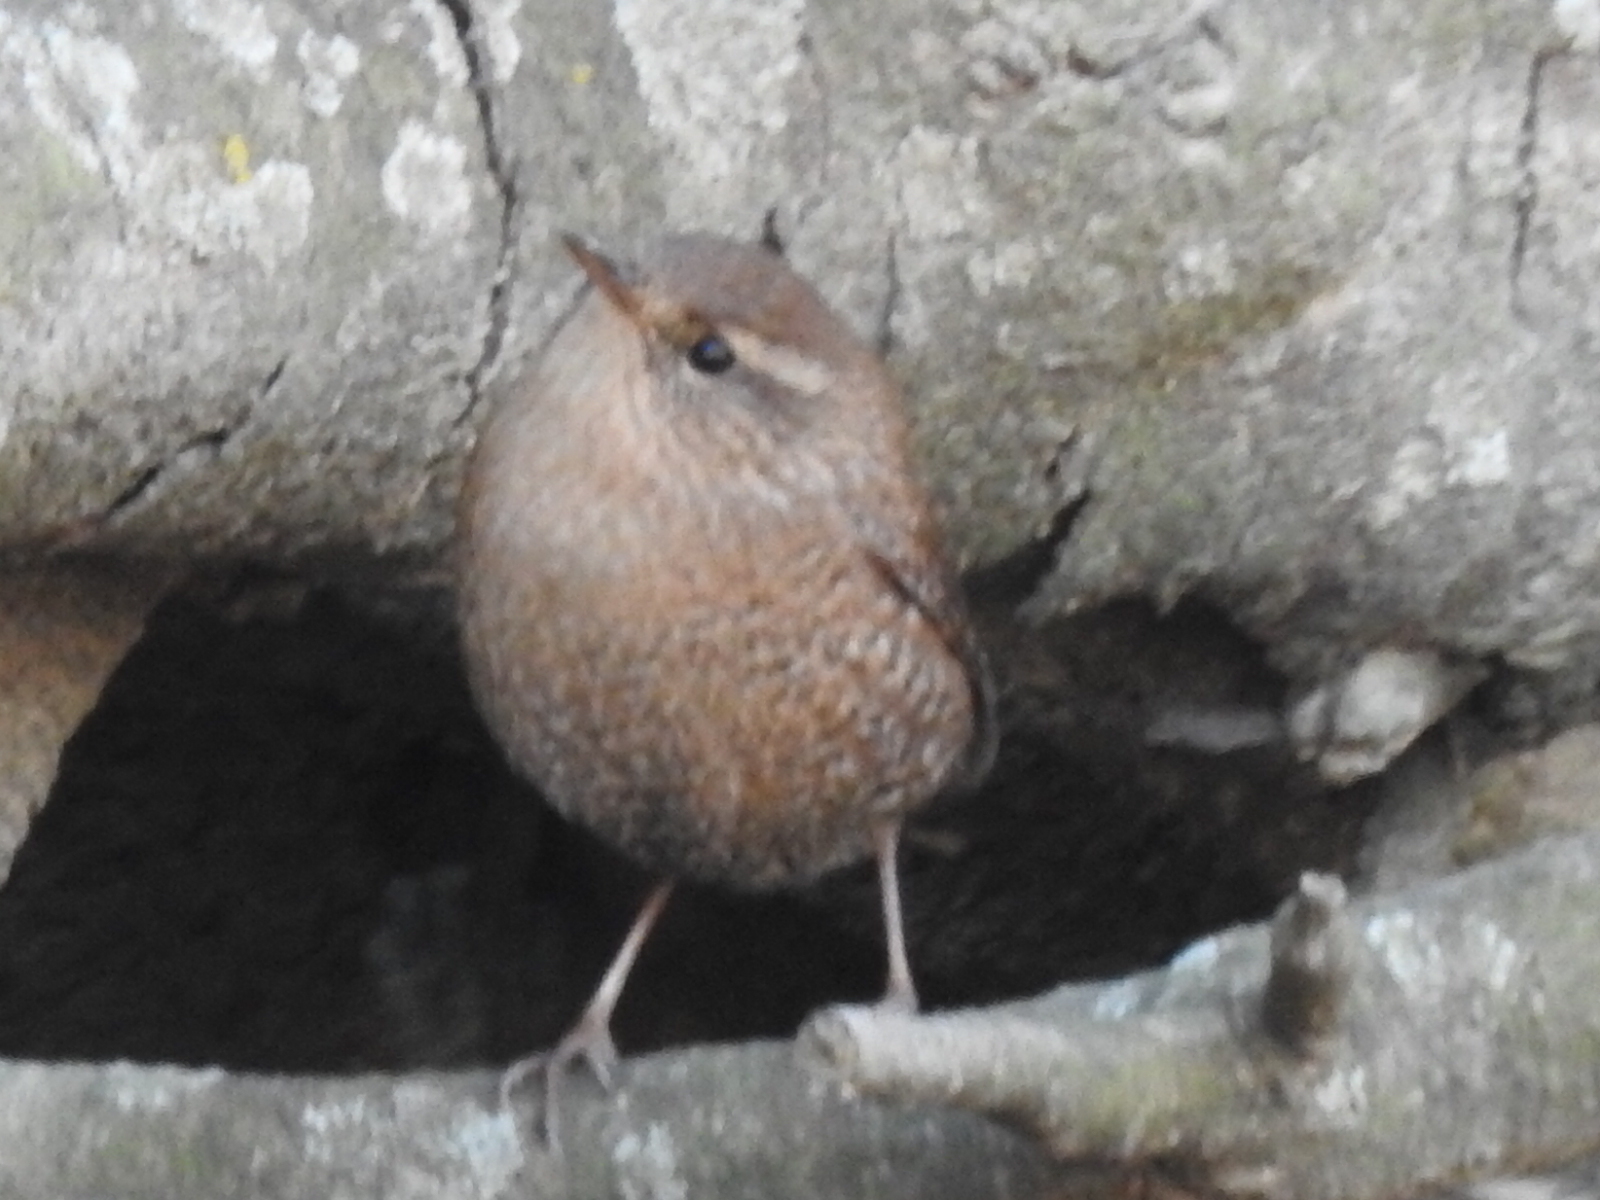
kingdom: Animalia
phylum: Chordata
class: Aves
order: Passeriformes
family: Troglodytidae
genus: Troglodytes
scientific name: Troglodytes hiemalis
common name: Winter wren
